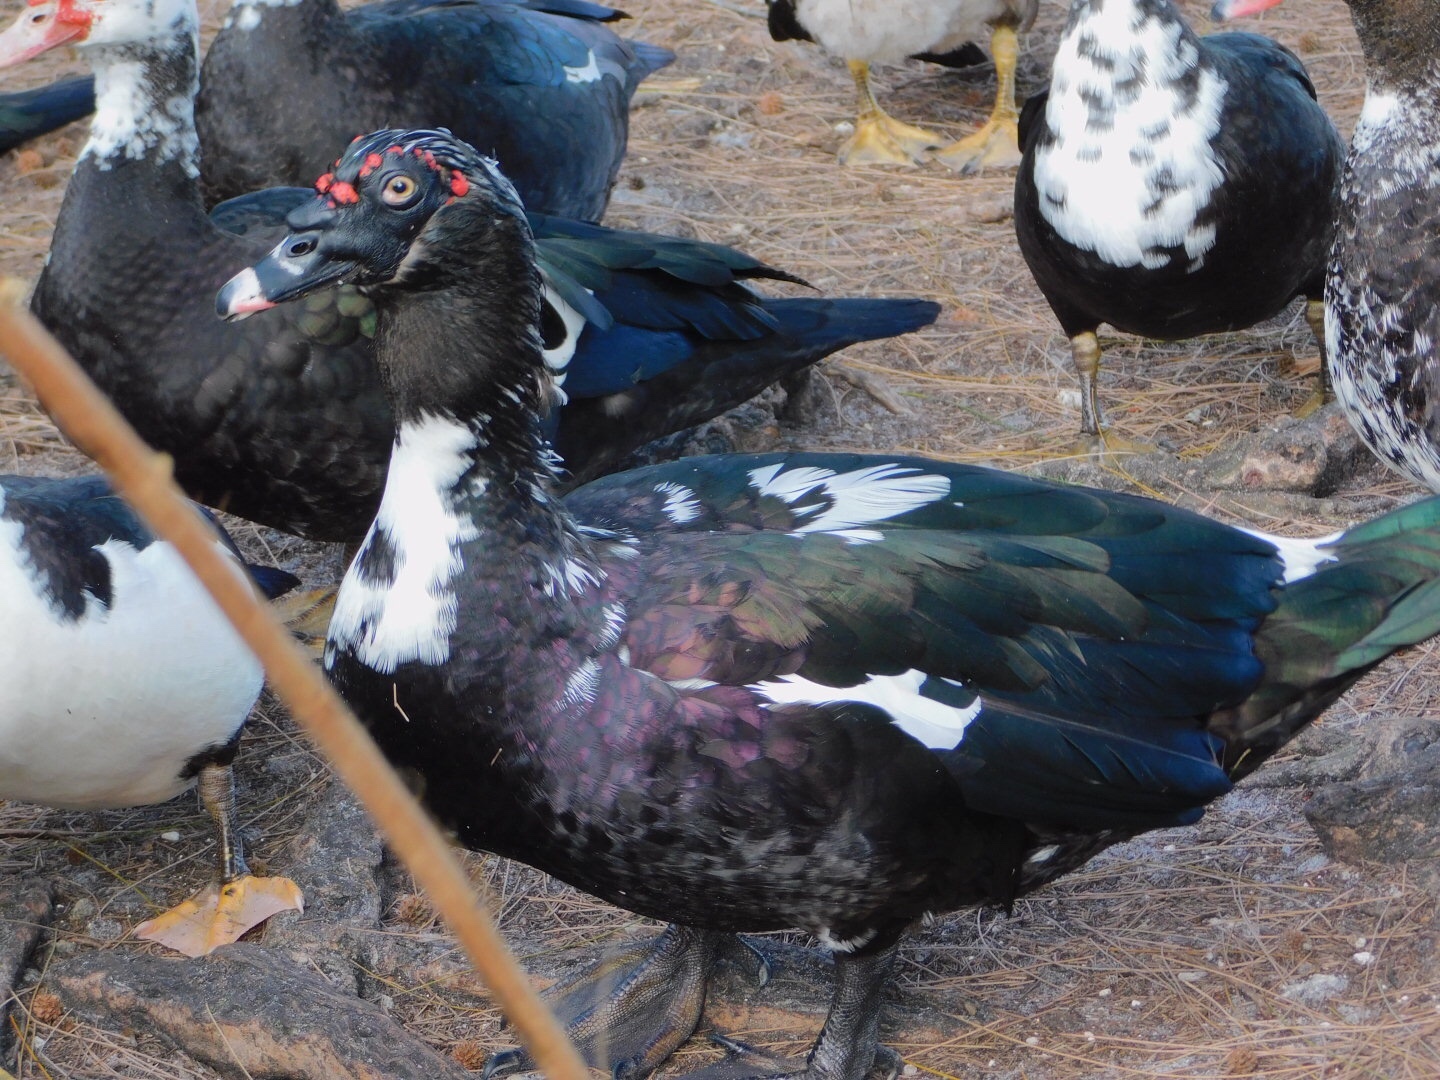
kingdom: Animalia
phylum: Chordata
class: Aves
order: Anseriformes
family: Anatidae
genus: Cairina
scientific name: Cairina moschata
